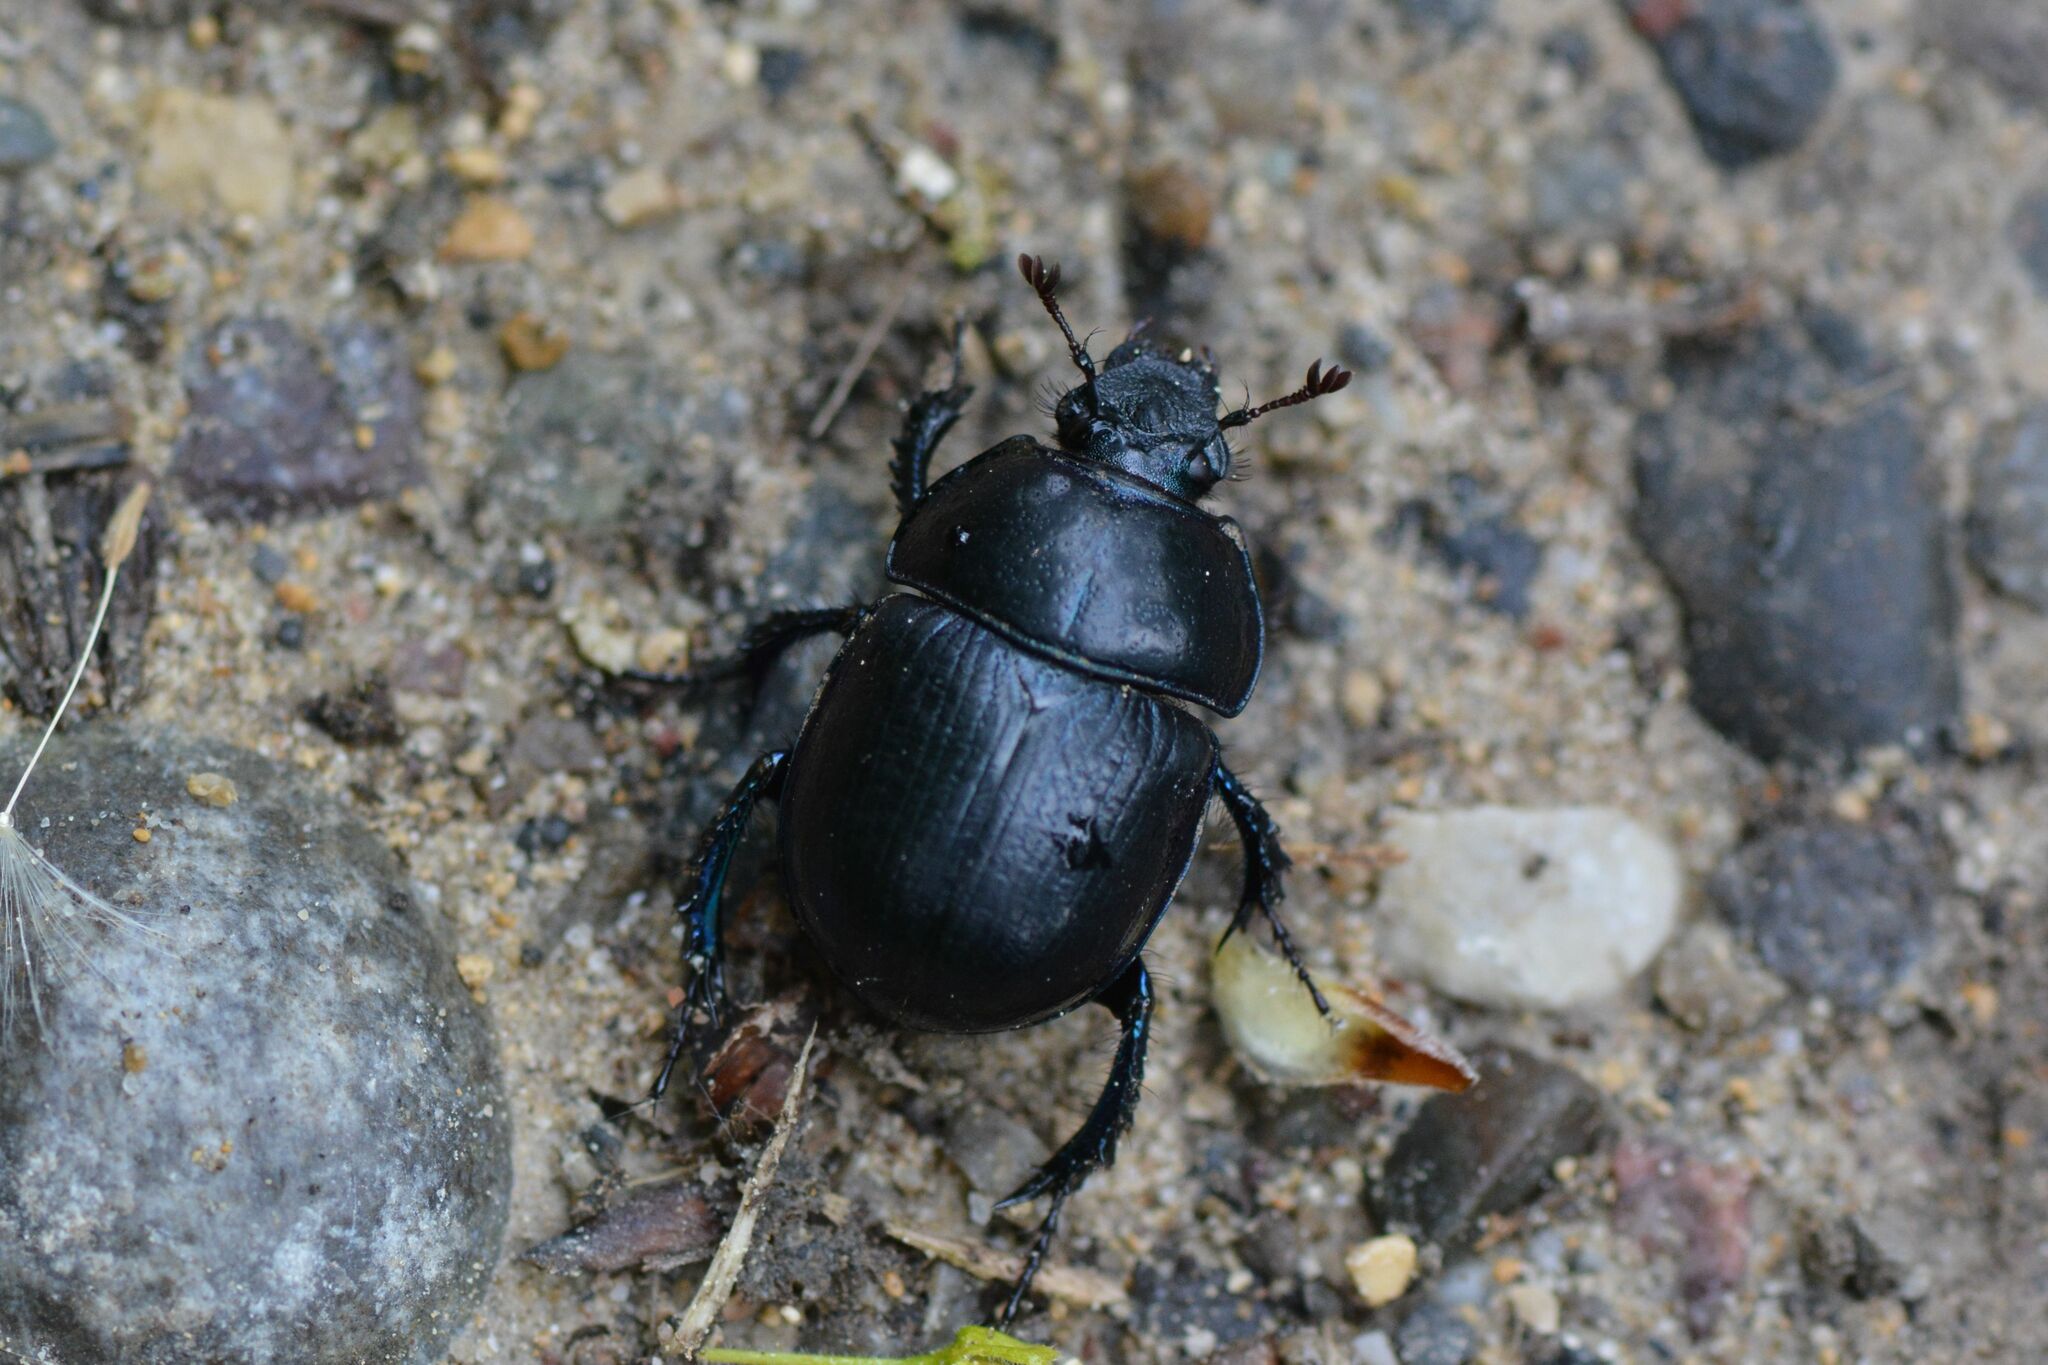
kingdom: Animalia
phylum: Arthropoda
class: Insecta
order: Coleoptera
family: Geotrupidae
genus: Anoplotrupes
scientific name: Anoplotrupes stercorosus
